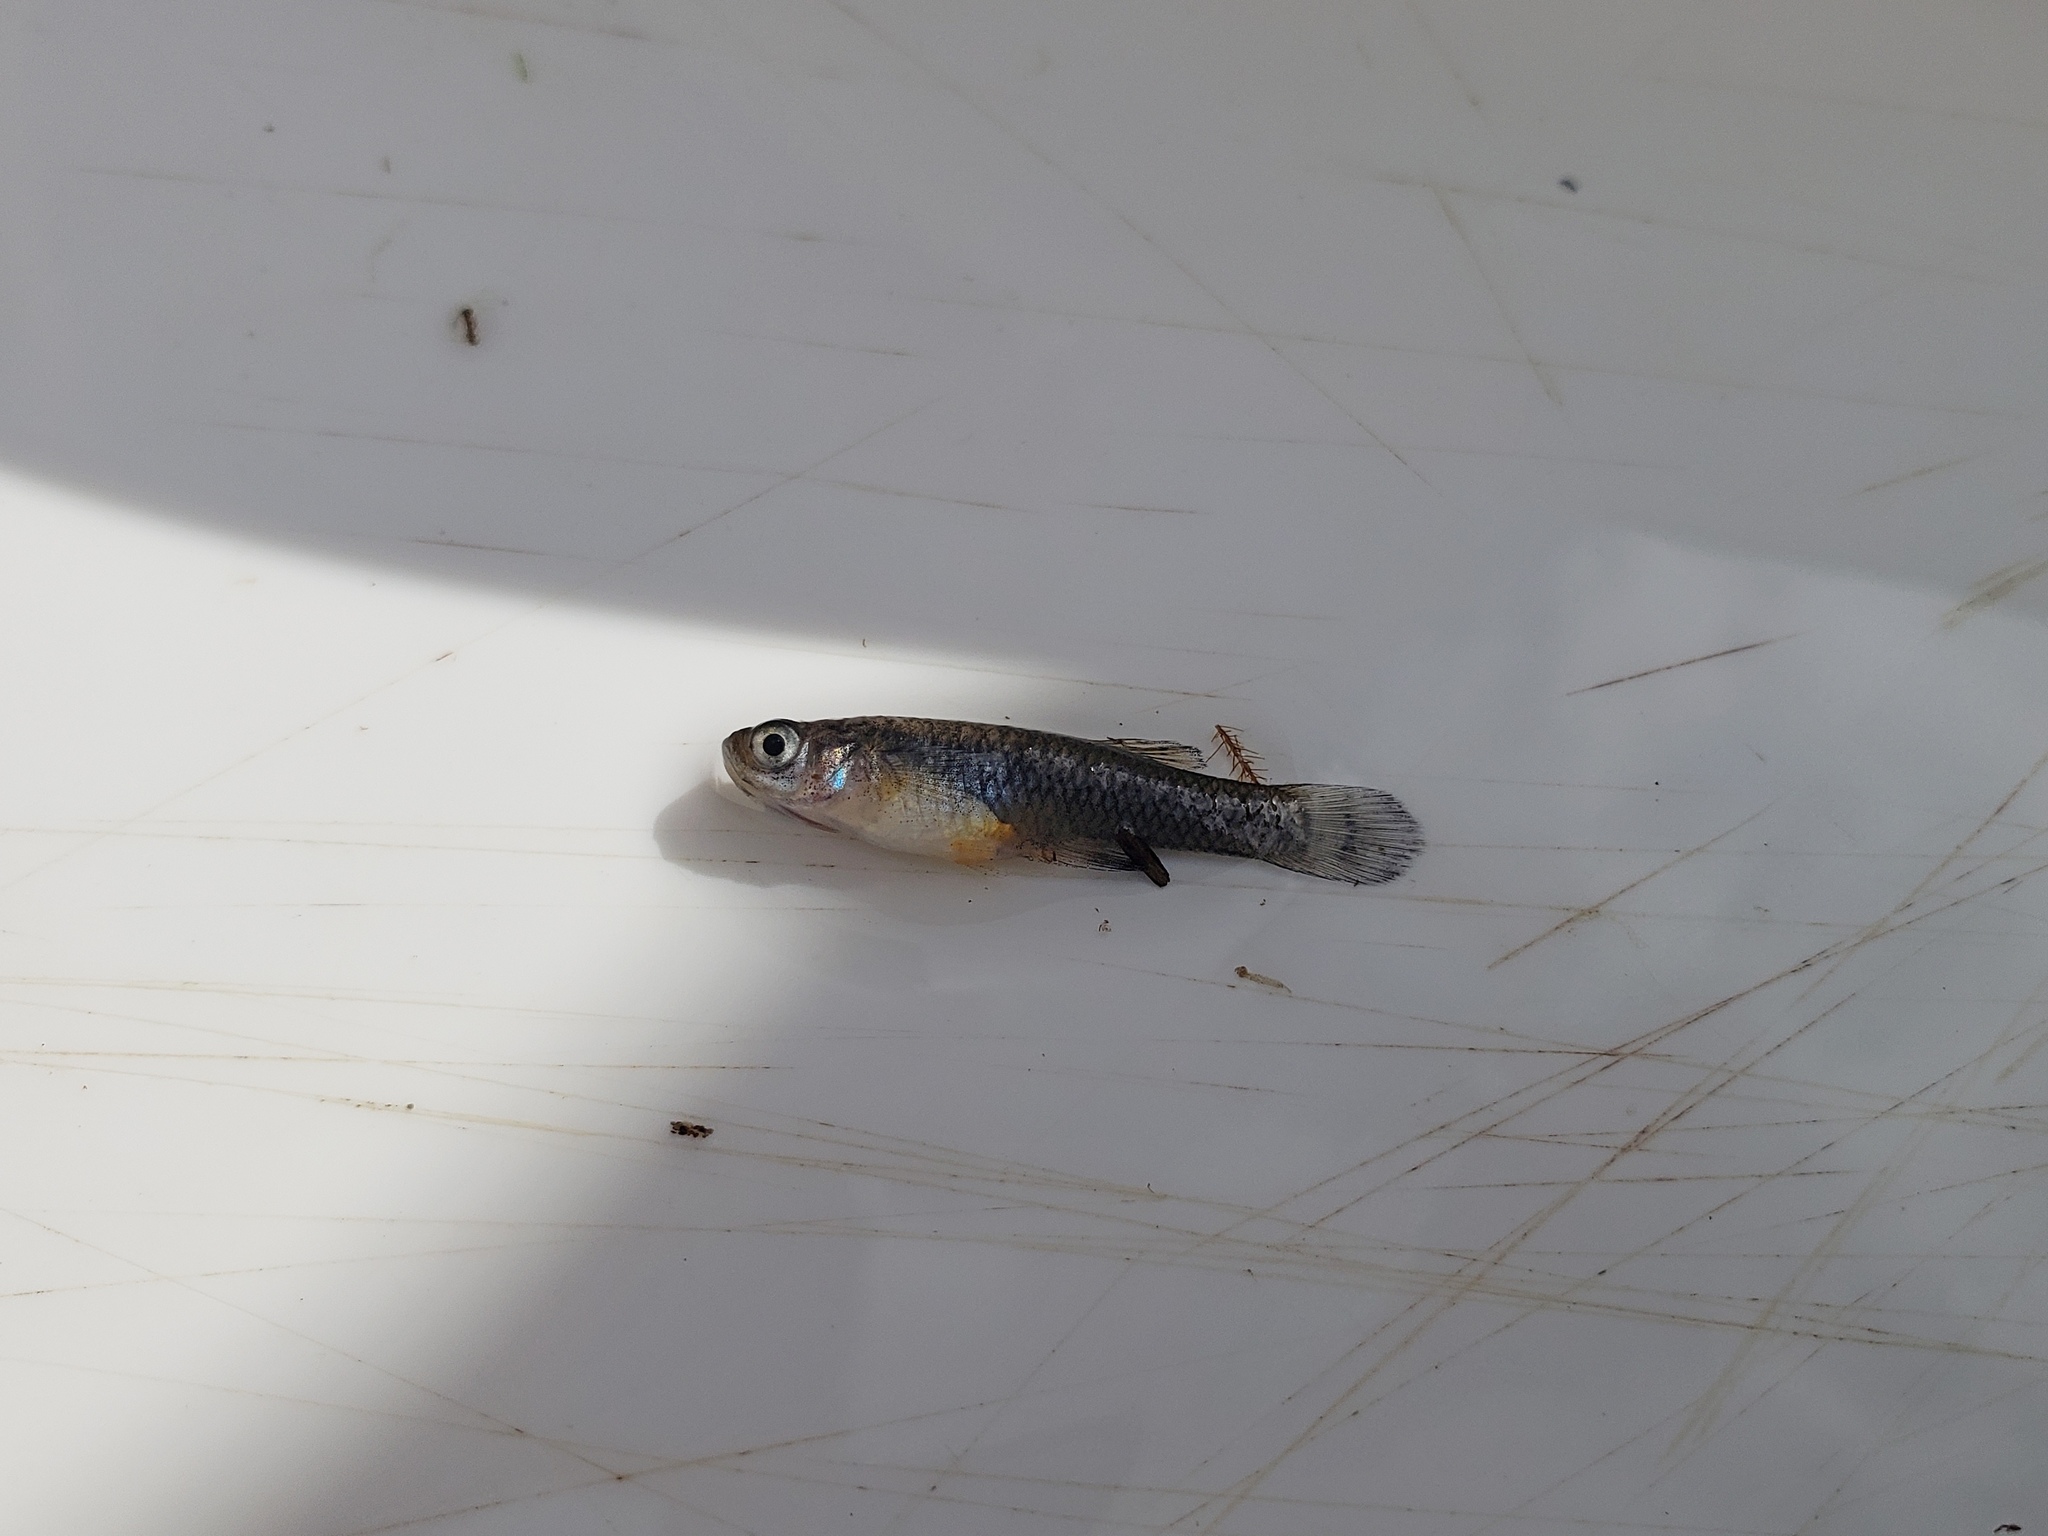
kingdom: Animalia
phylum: Chordata
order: Cyprinodontiformes
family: Poeciliidae
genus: Gambusia
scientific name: Gambusia affinis
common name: Mosquitofish
